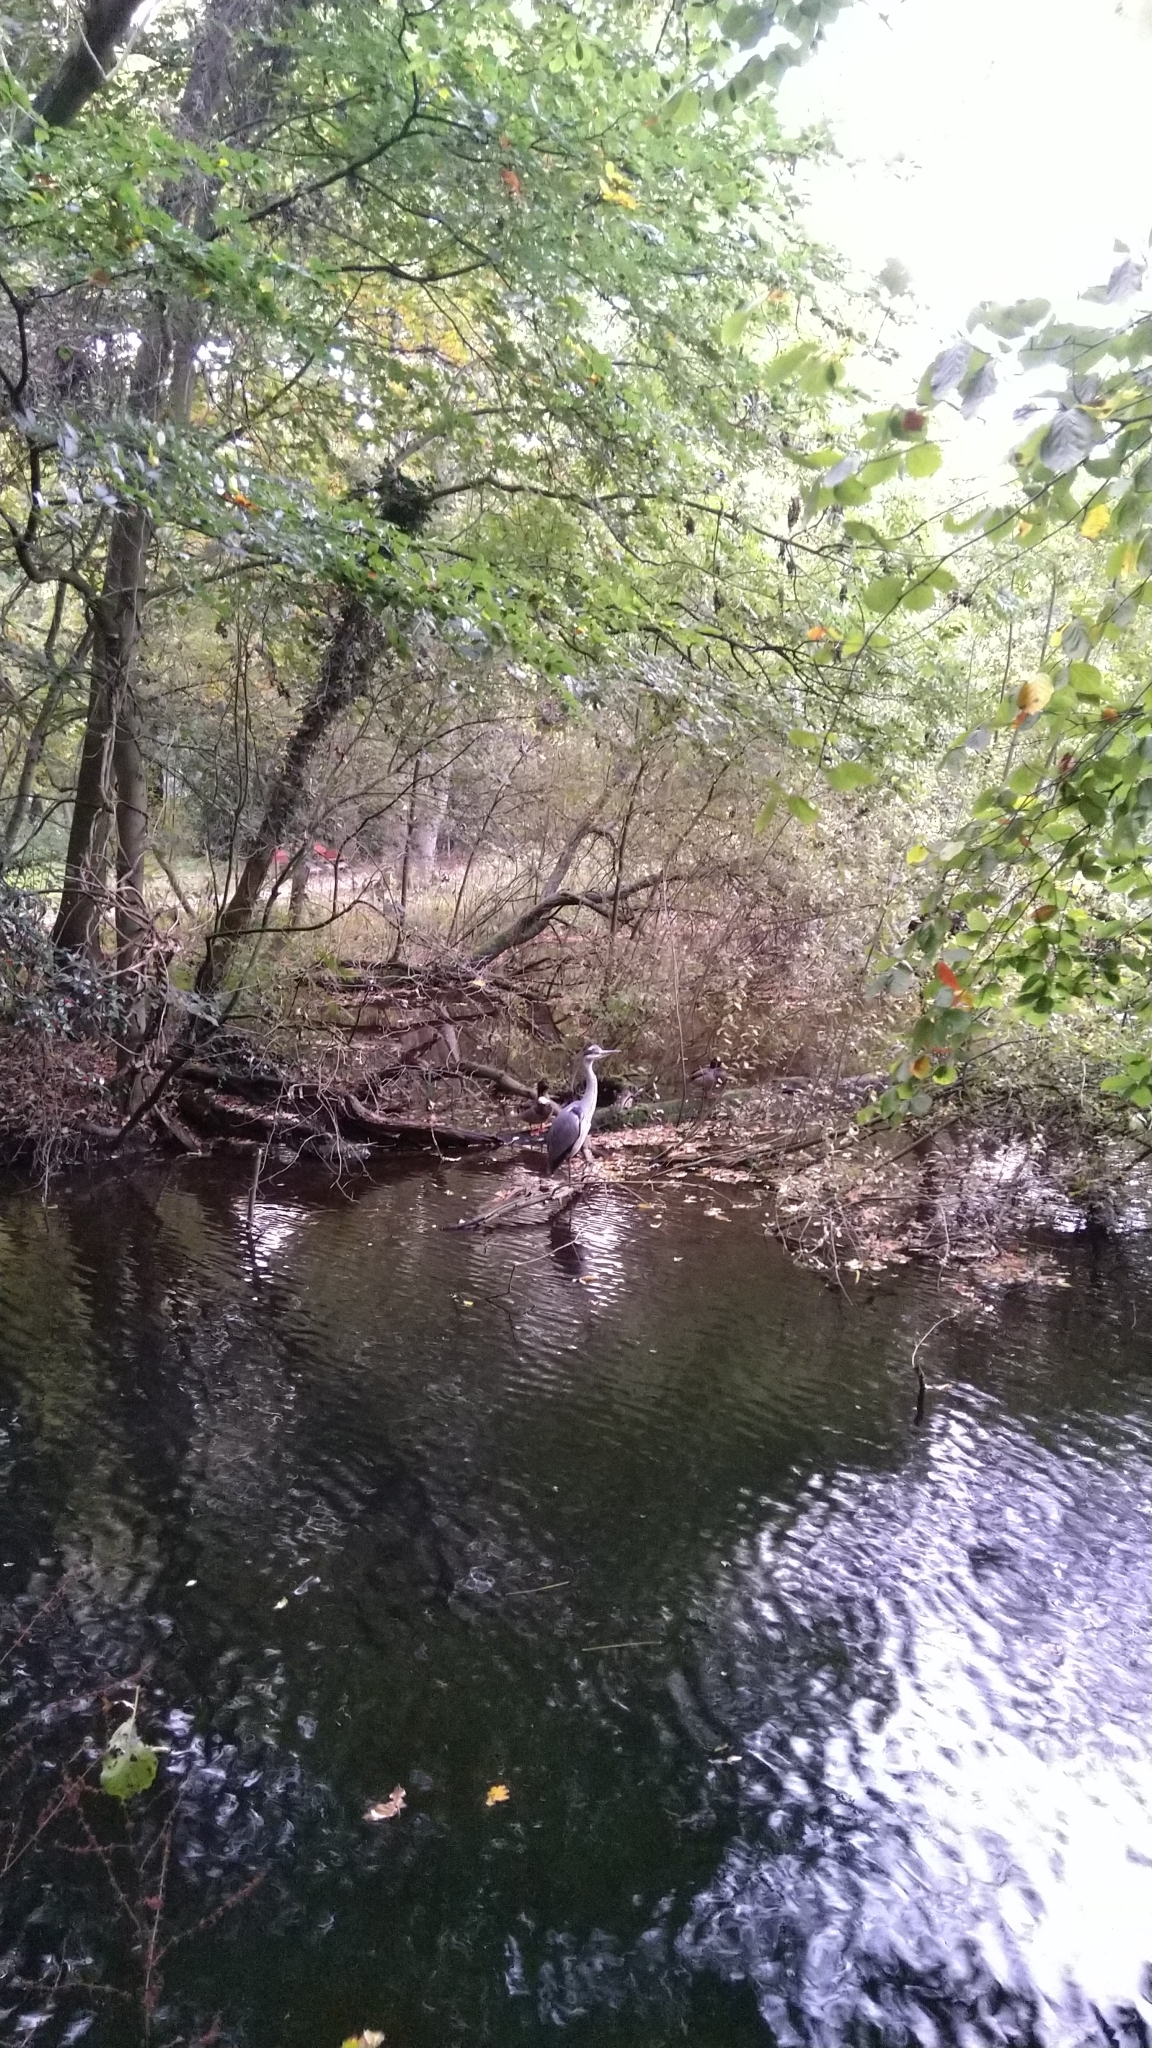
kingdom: Animalia
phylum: Chordata
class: Aves
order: Pelecaniformes
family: Ardeidae
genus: Ardea
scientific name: Ardea cinerea
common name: Grey heron
